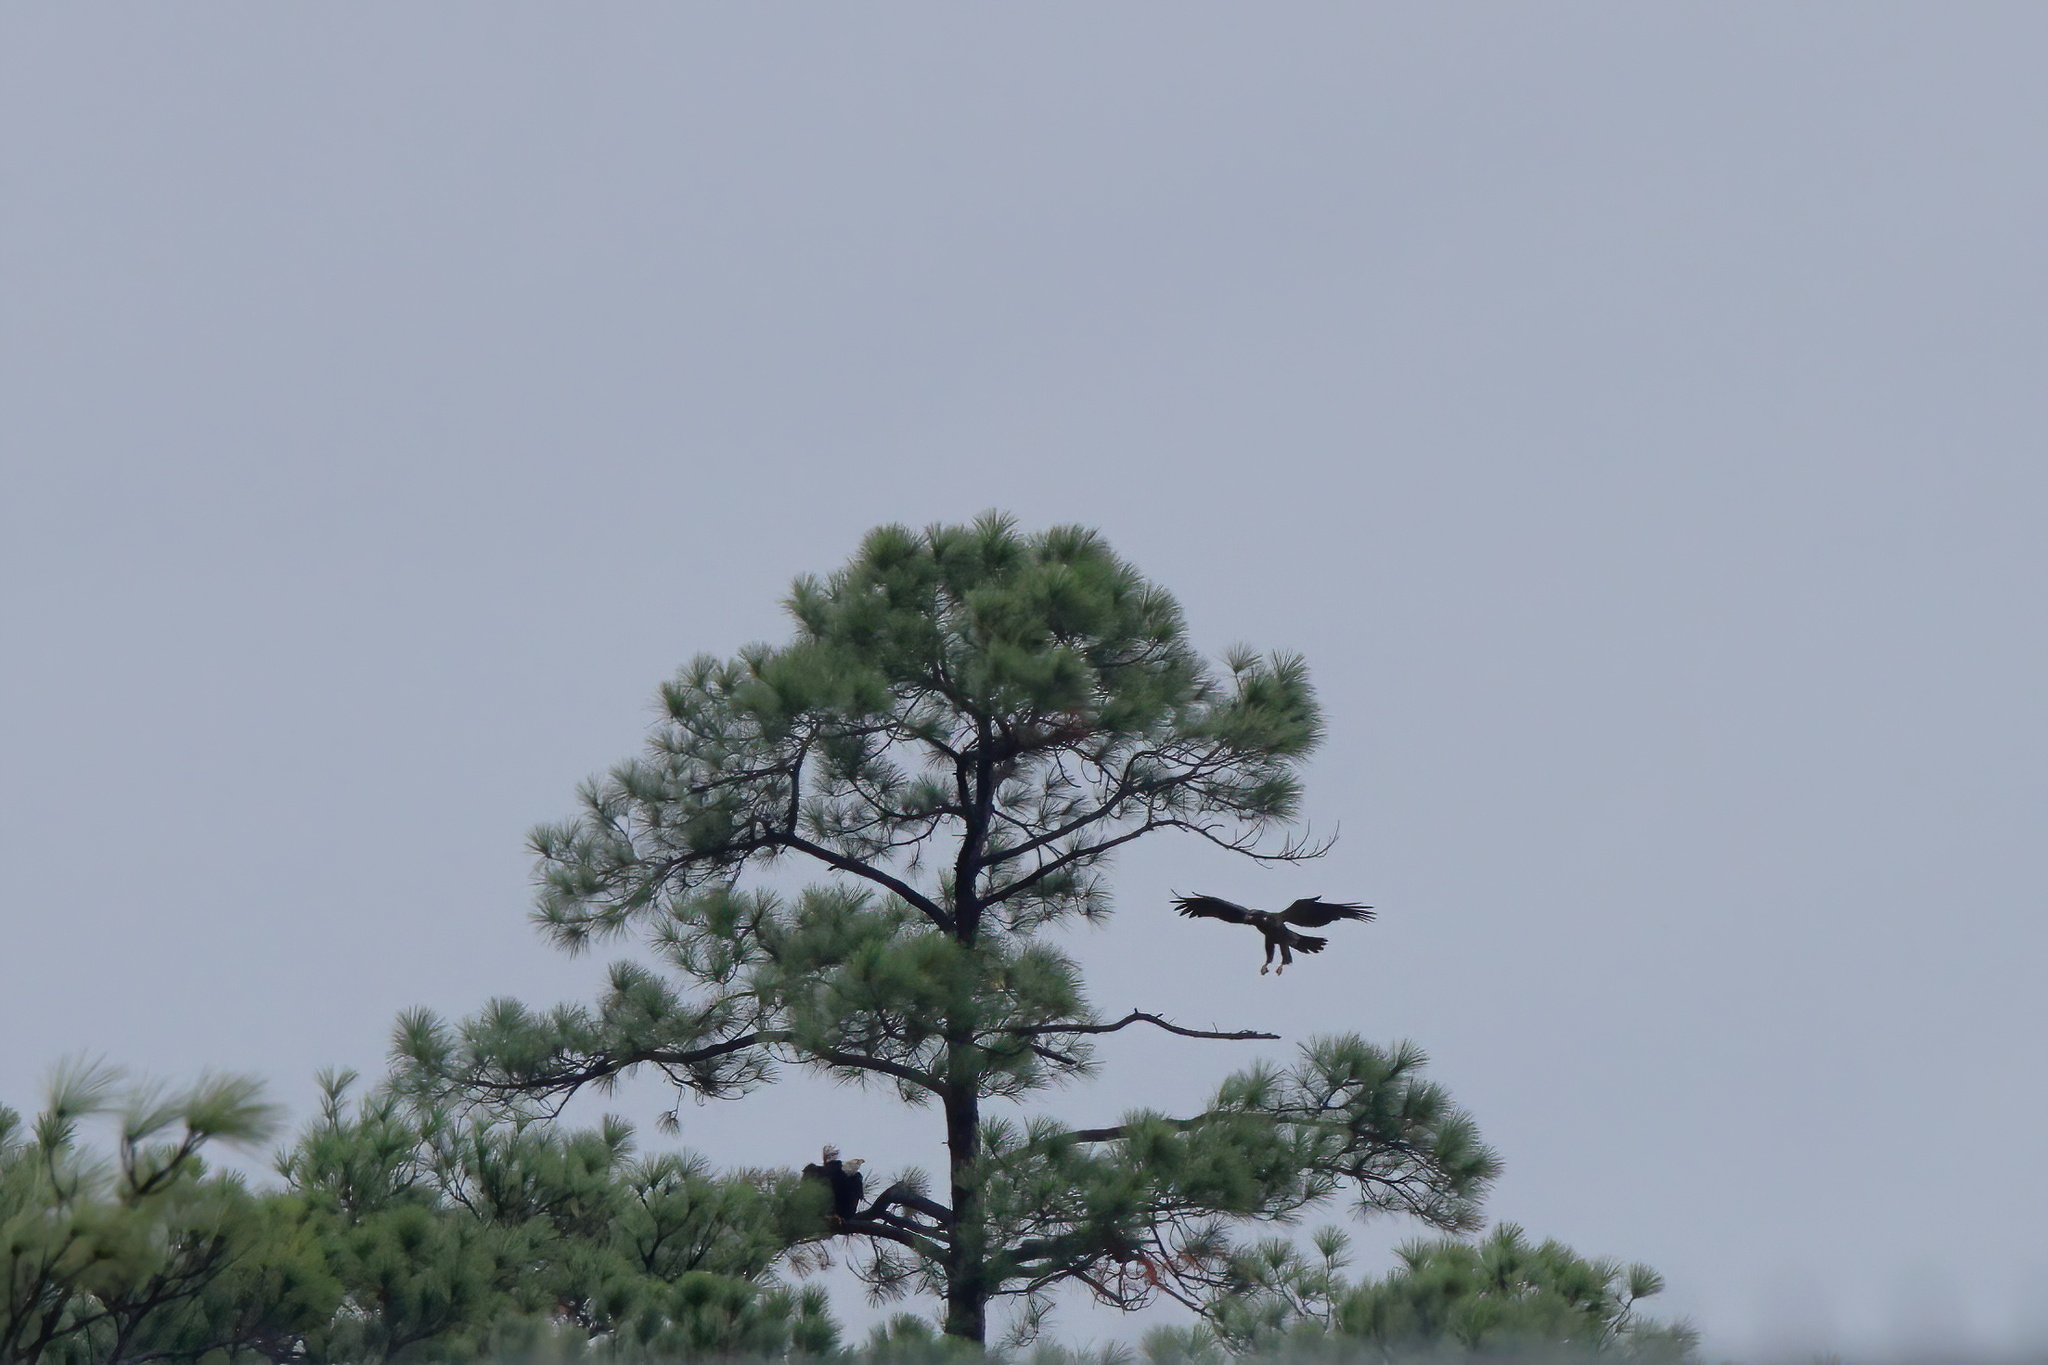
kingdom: Animalia
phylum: Chordata
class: Aves
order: Accipitriformes
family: Accipitridae
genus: Haliaeetus
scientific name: Haliaeetus leucocephalus
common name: Bald eagle
